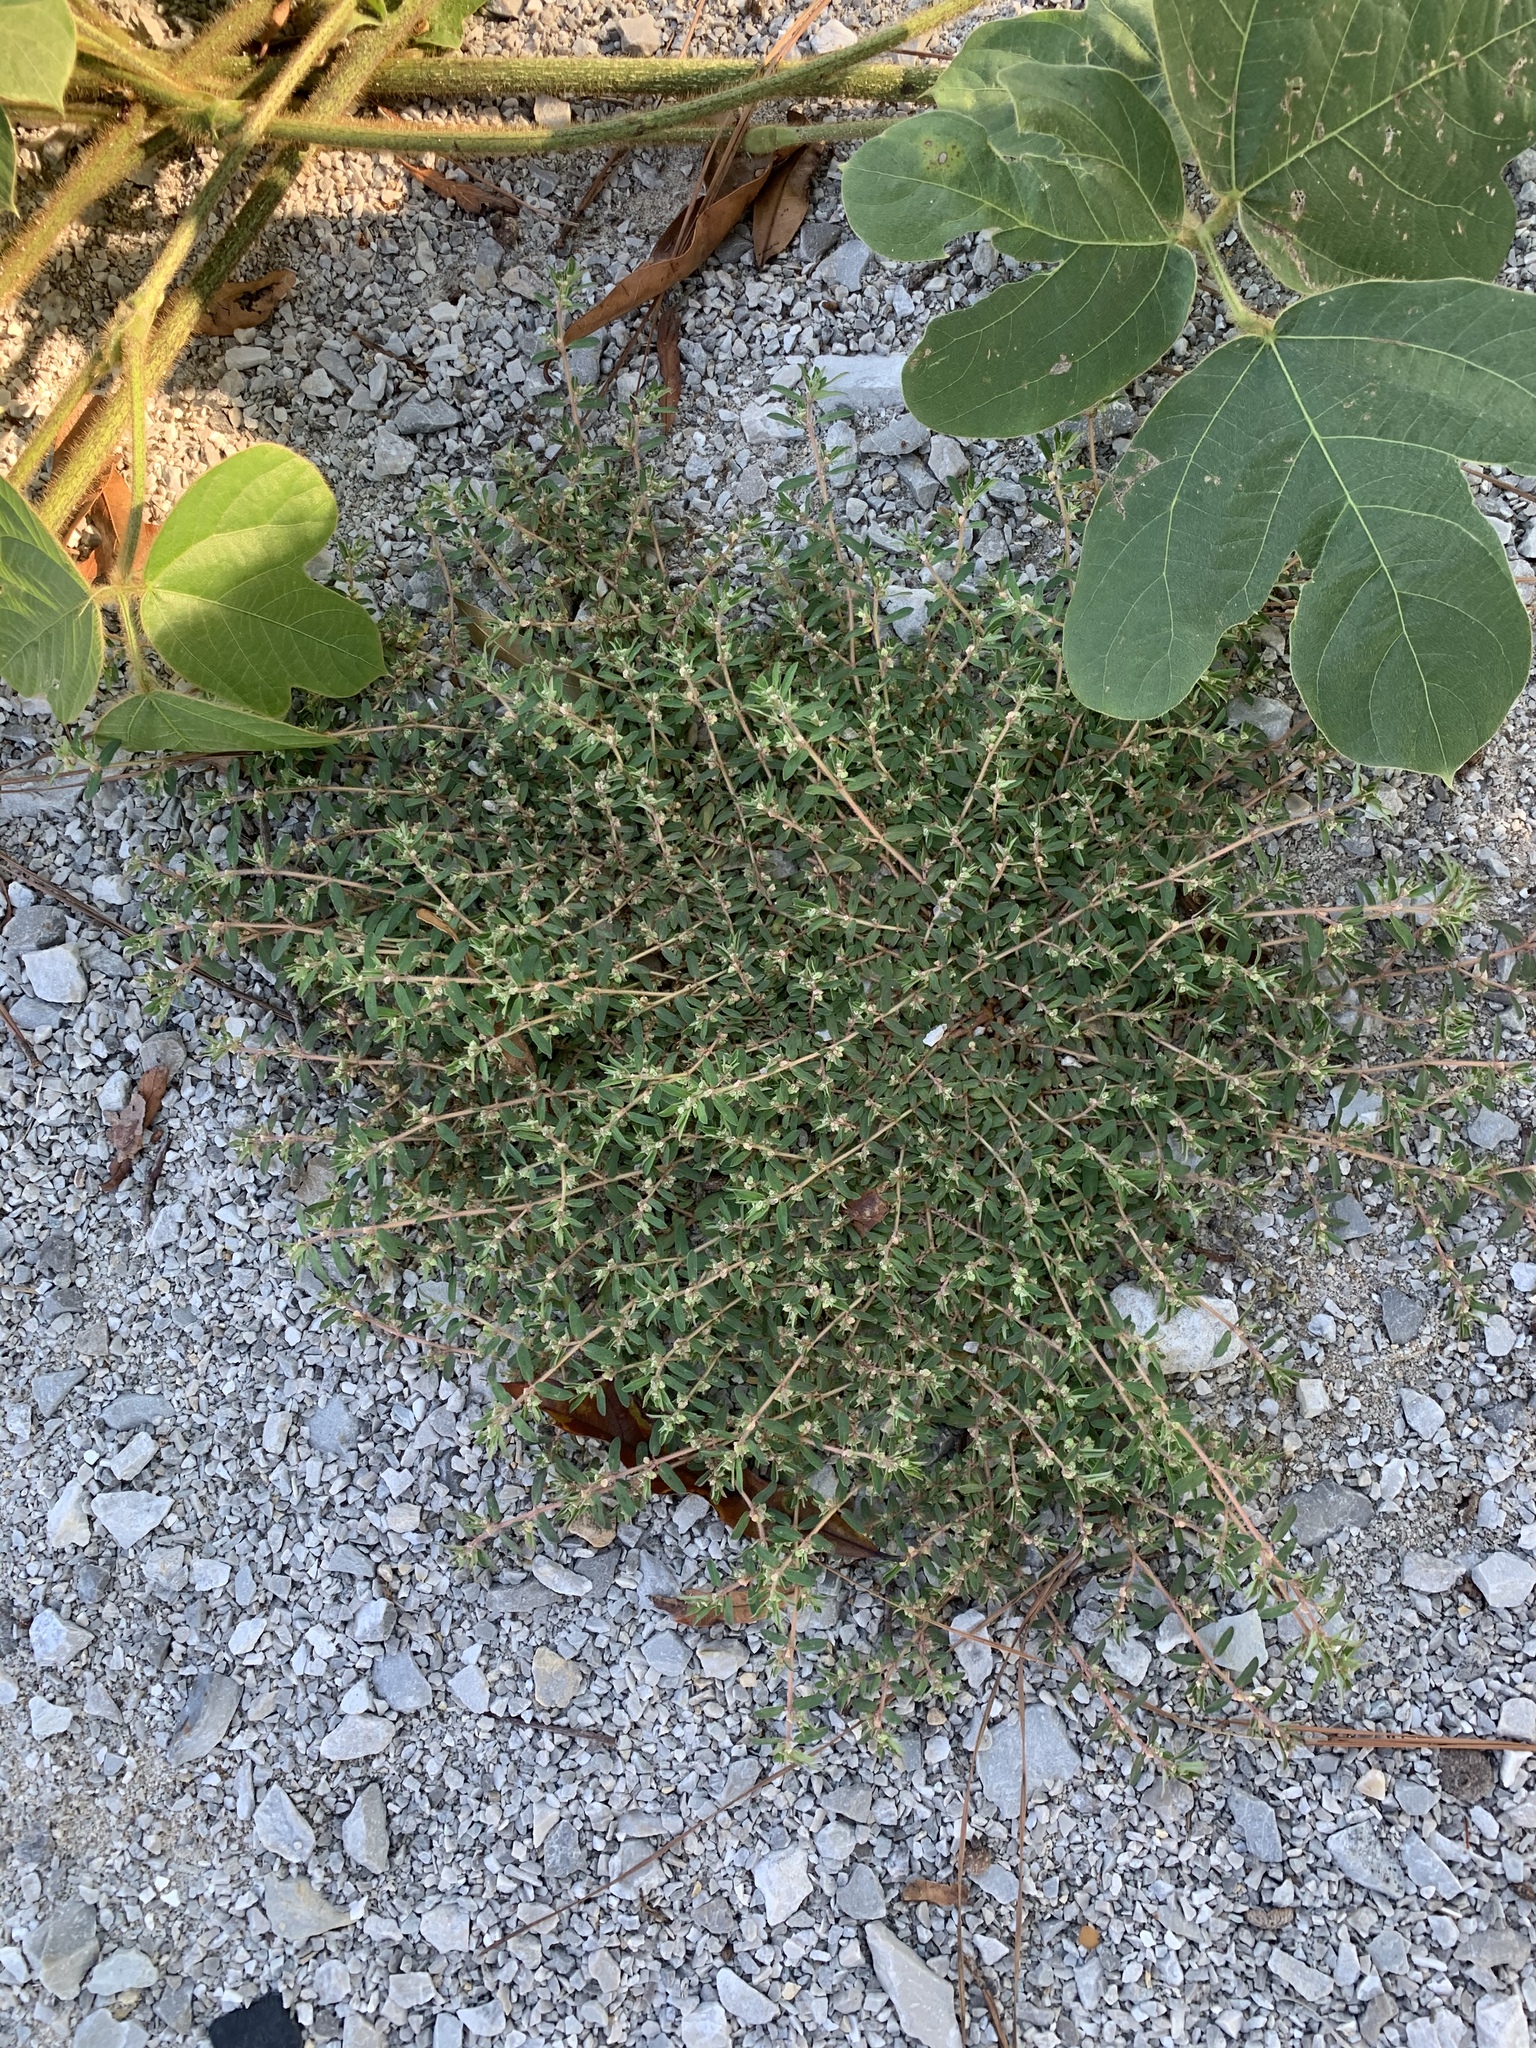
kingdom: Plantae
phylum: Tracheophyta
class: Magnoliopsida
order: Malpighiales
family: Euphorbiaceae
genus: Euphorbia
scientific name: Euphorbia maculata
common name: Spotted spurge
